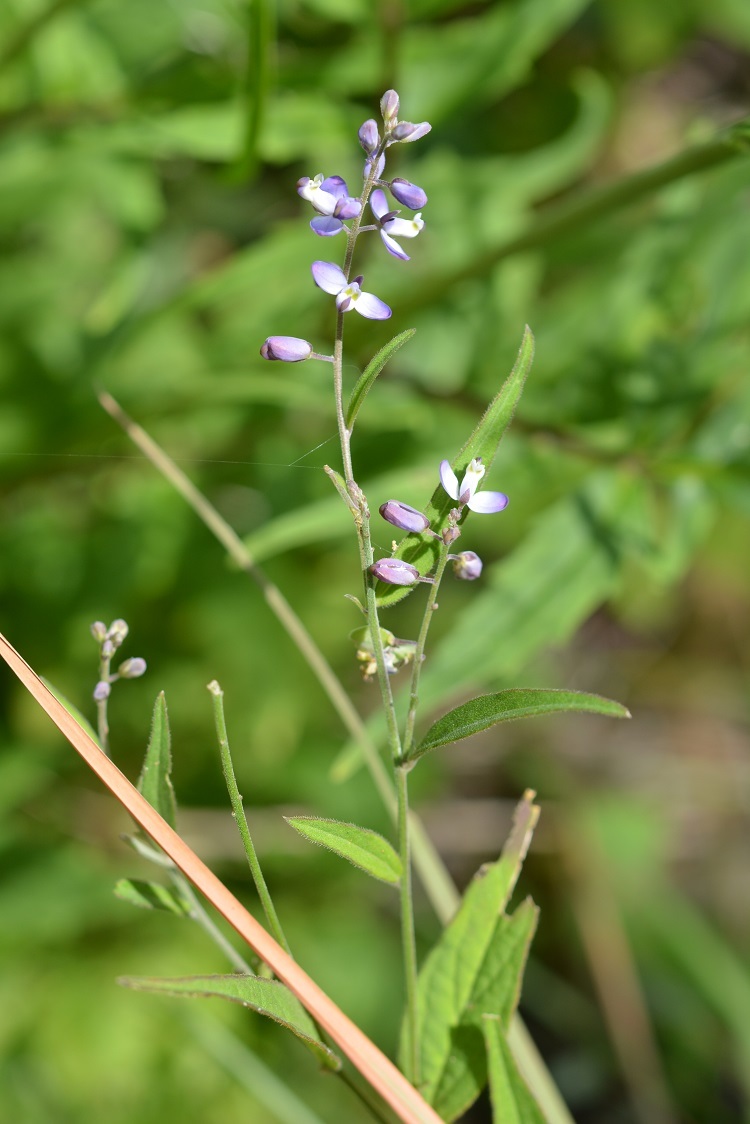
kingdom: Plantae
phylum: Tracheophyta
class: Magnoliopsida
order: Fabales
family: Polygalaceae
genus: Hebecarpa
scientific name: Hebecarpa costaricensis
